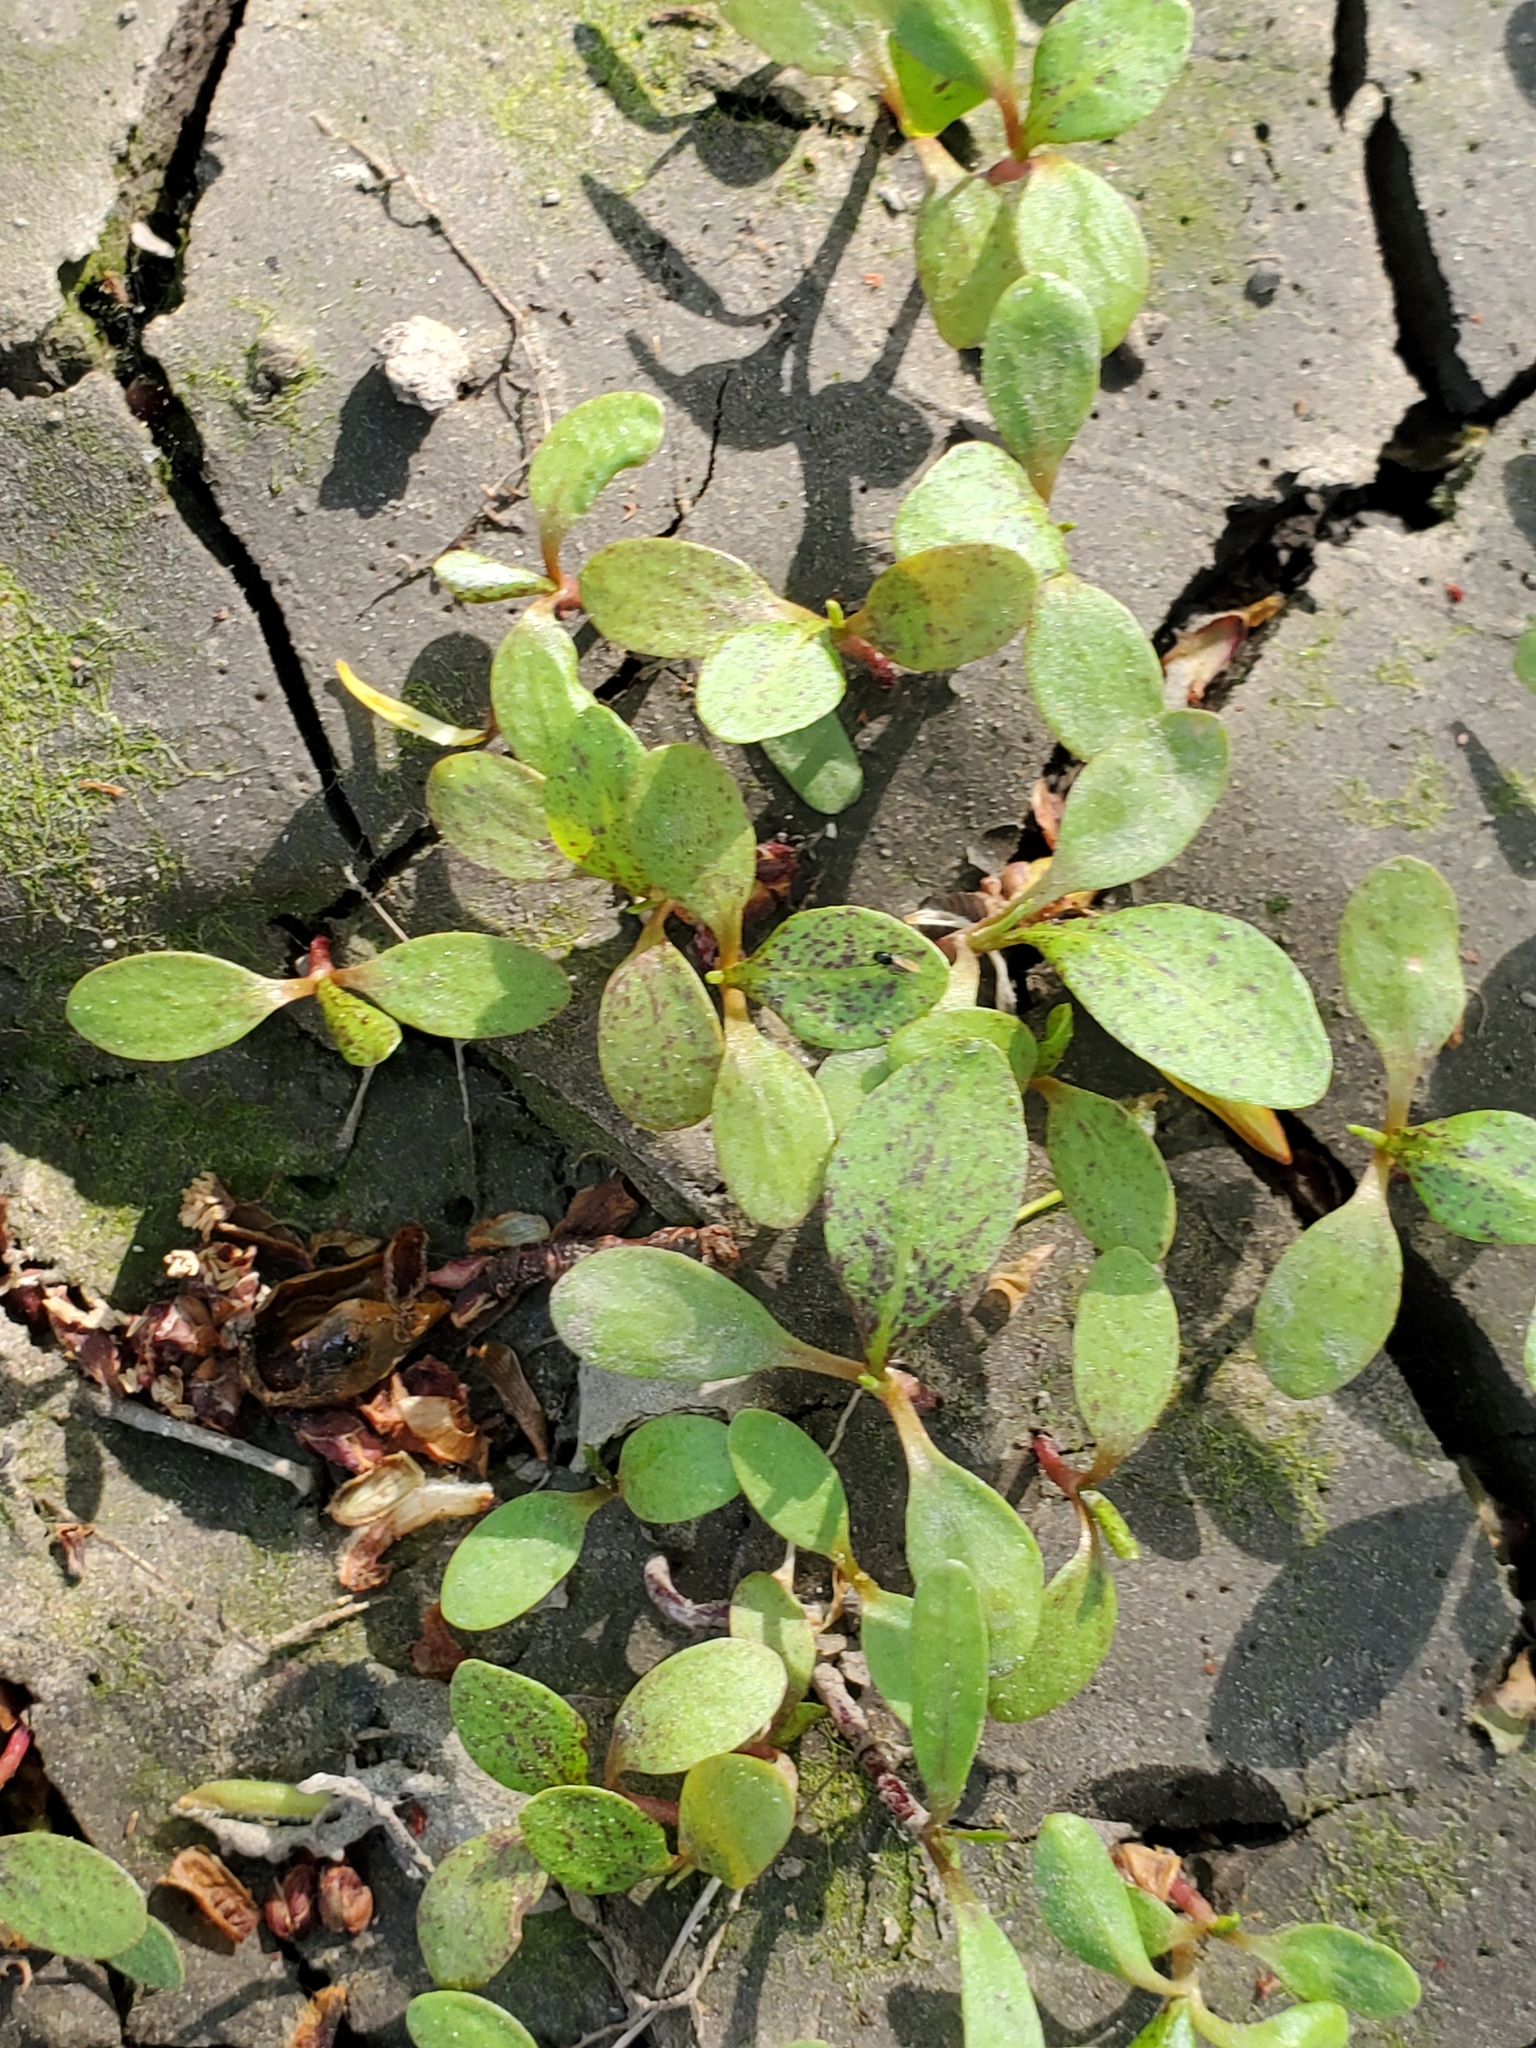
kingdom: Plantae
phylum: Tracheophyta
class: Magnoliopsida
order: Caryophyllales
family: Portulacaceae
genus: Portulaca
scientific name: Portulaca oleracea
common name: Common purslane
